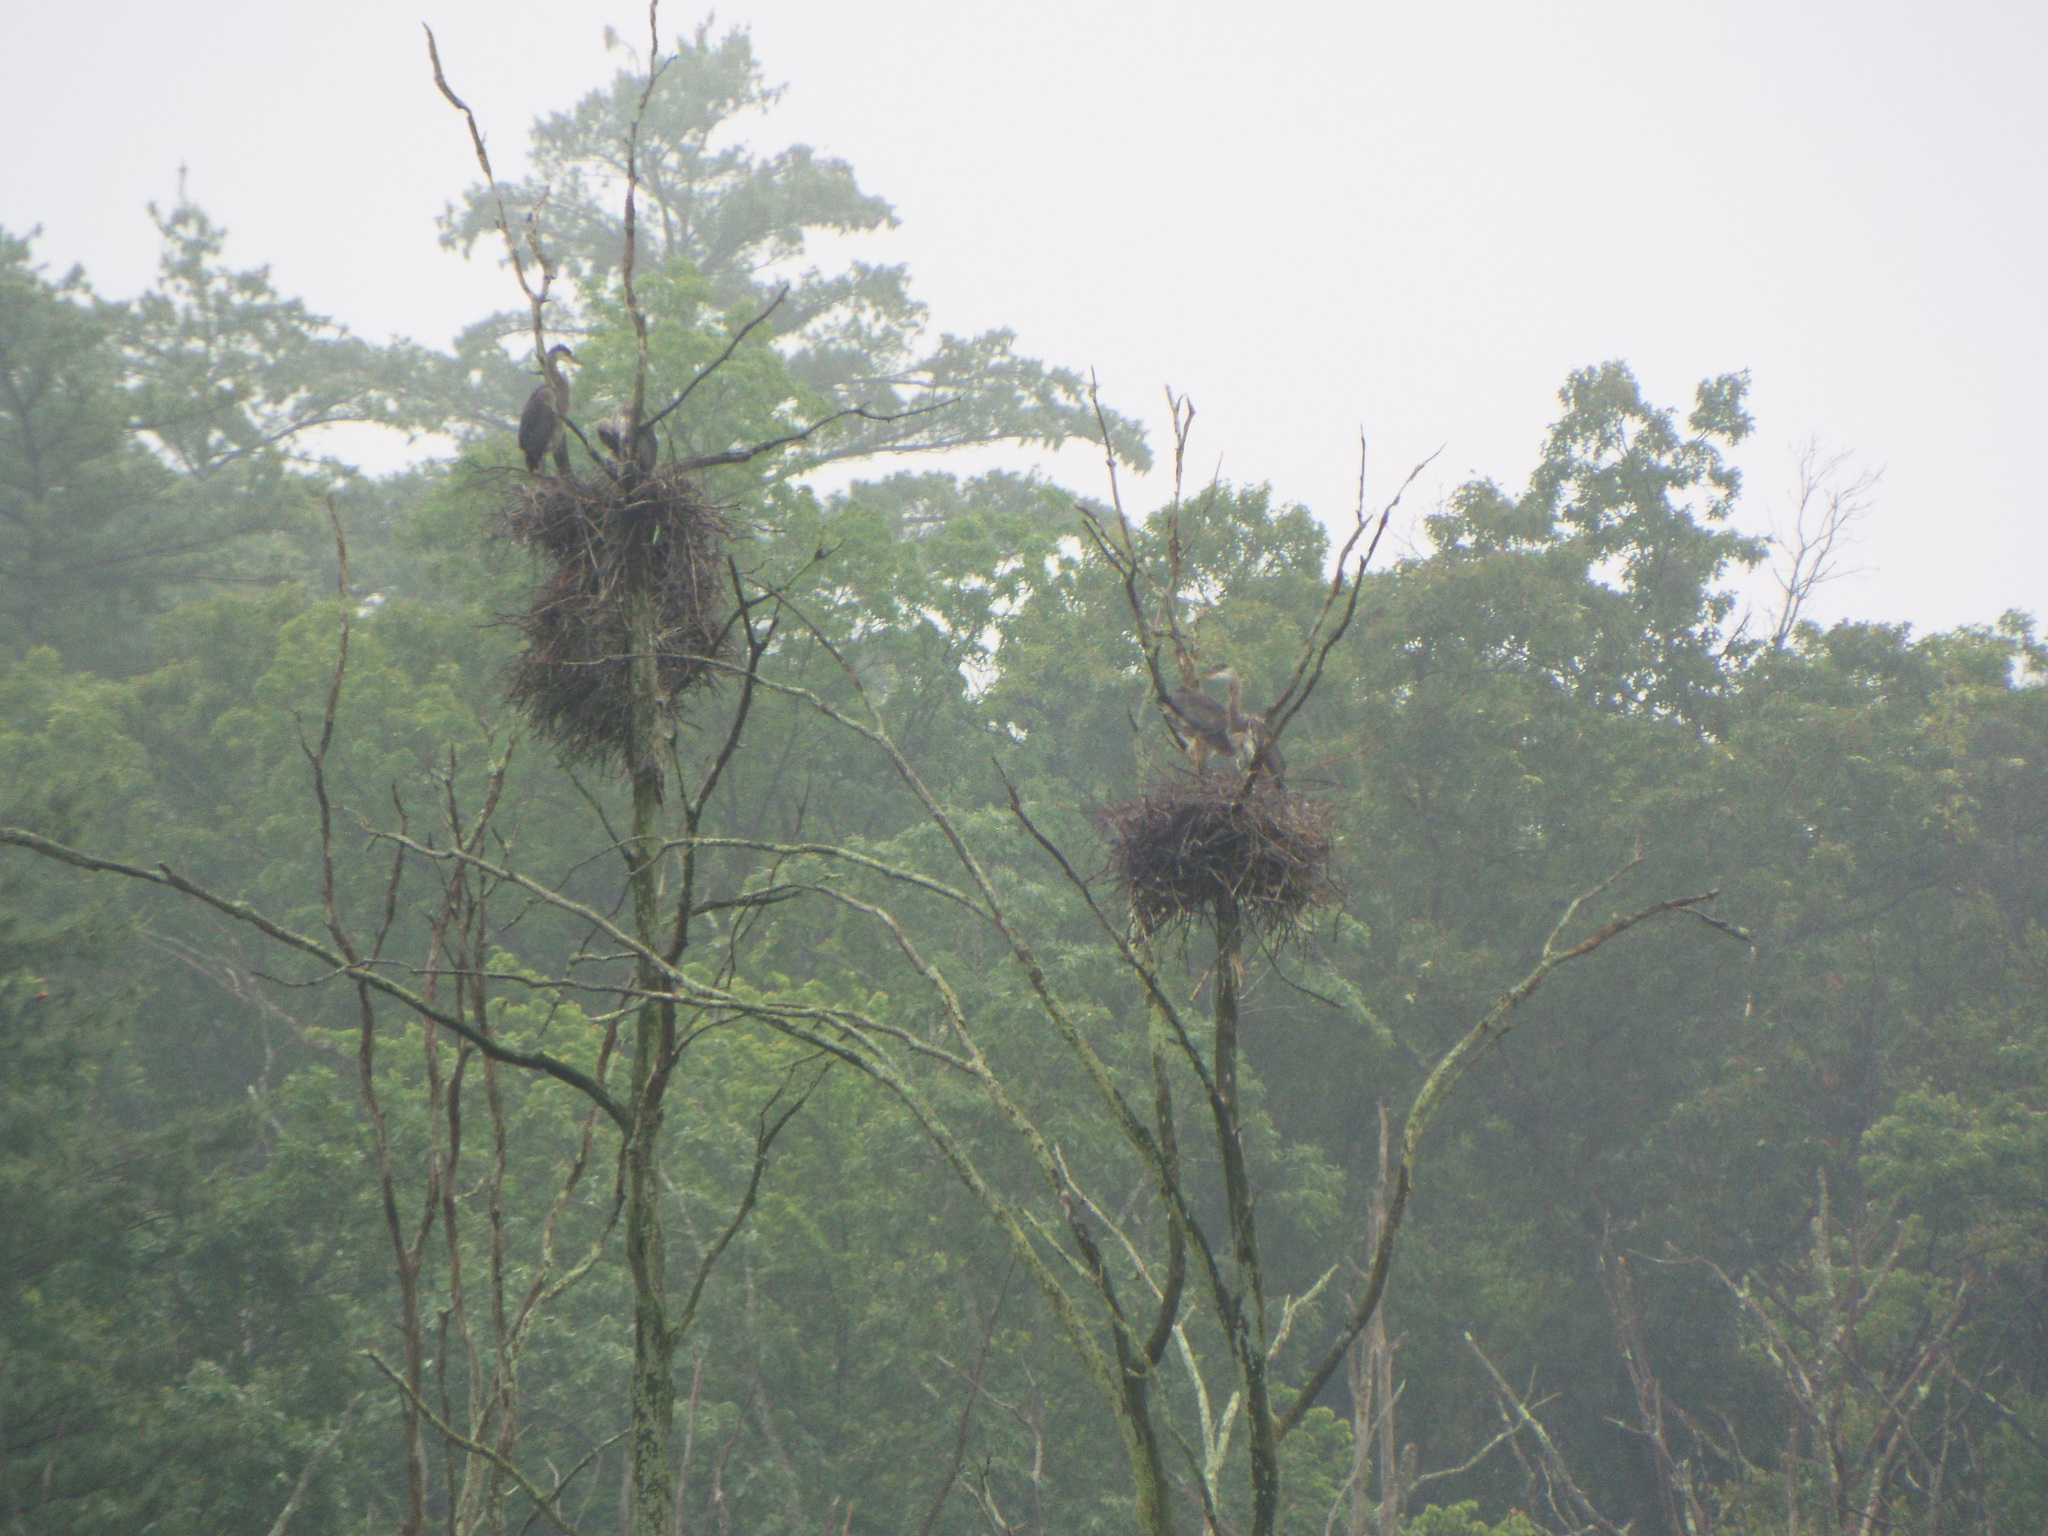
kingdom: Animalia
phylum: Chordata
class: Aves
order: Pelecaniformes
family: Ardeidae
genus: Ardea
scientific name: Ardea herodias
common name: Great blue heron
